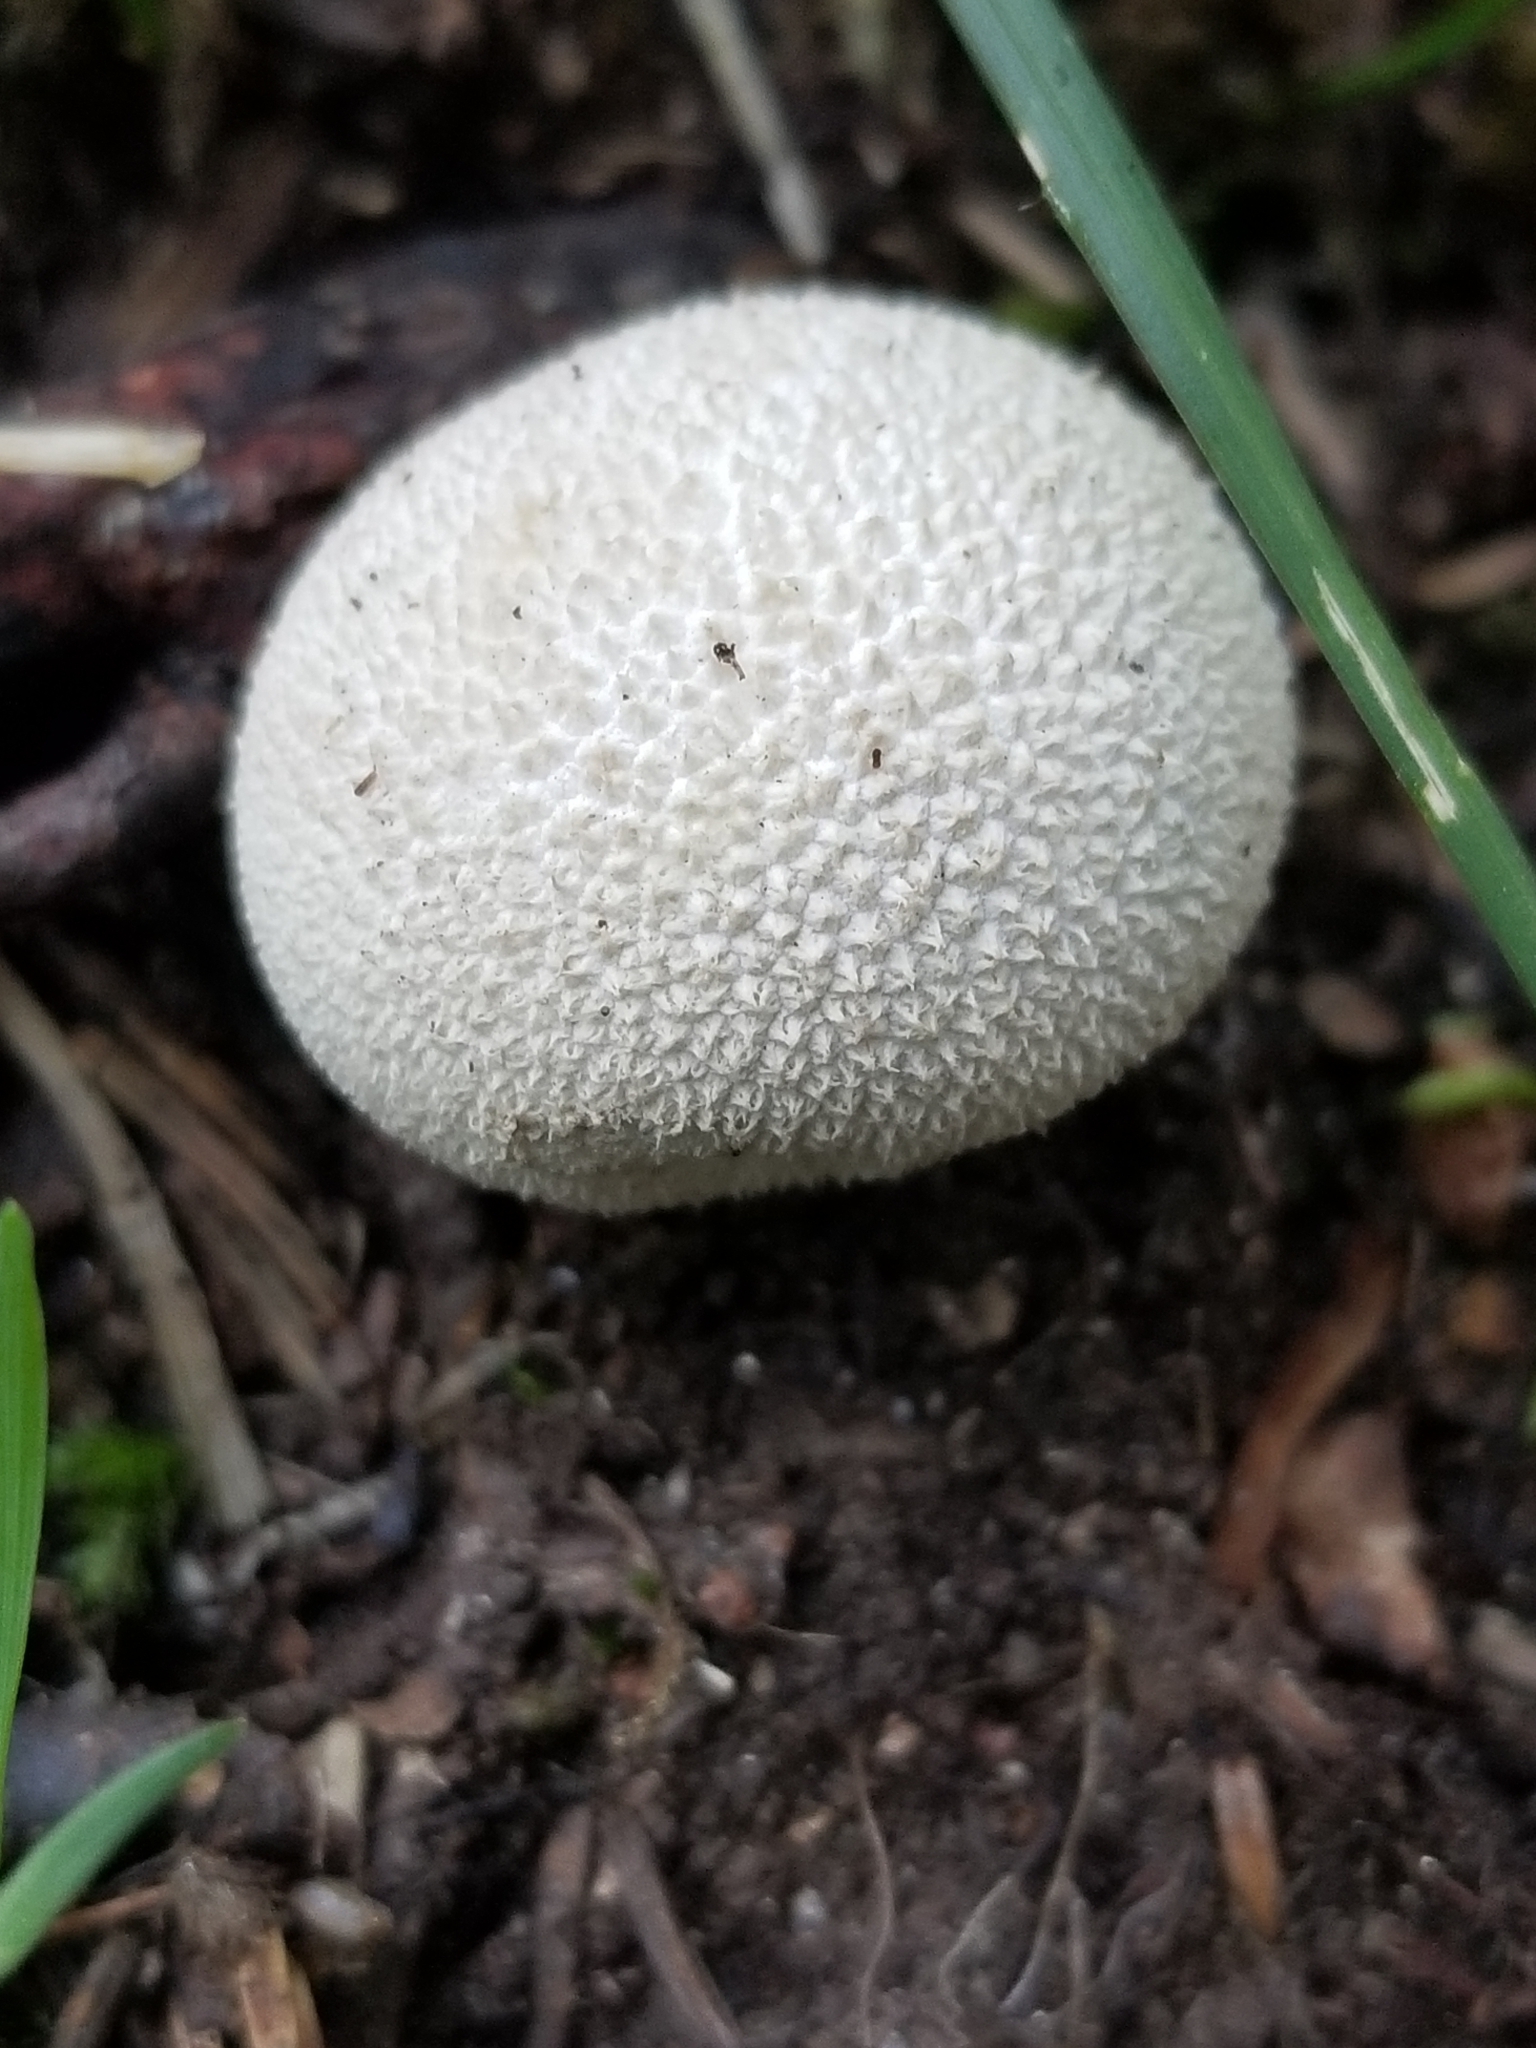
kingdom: Fungi
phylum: Basidiomycota
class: Agaricomycetes
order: Agaricales
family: Lycoperdaceae
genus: Lycoperdon
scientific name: Lycoperdon perlatum
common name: Common puffball
